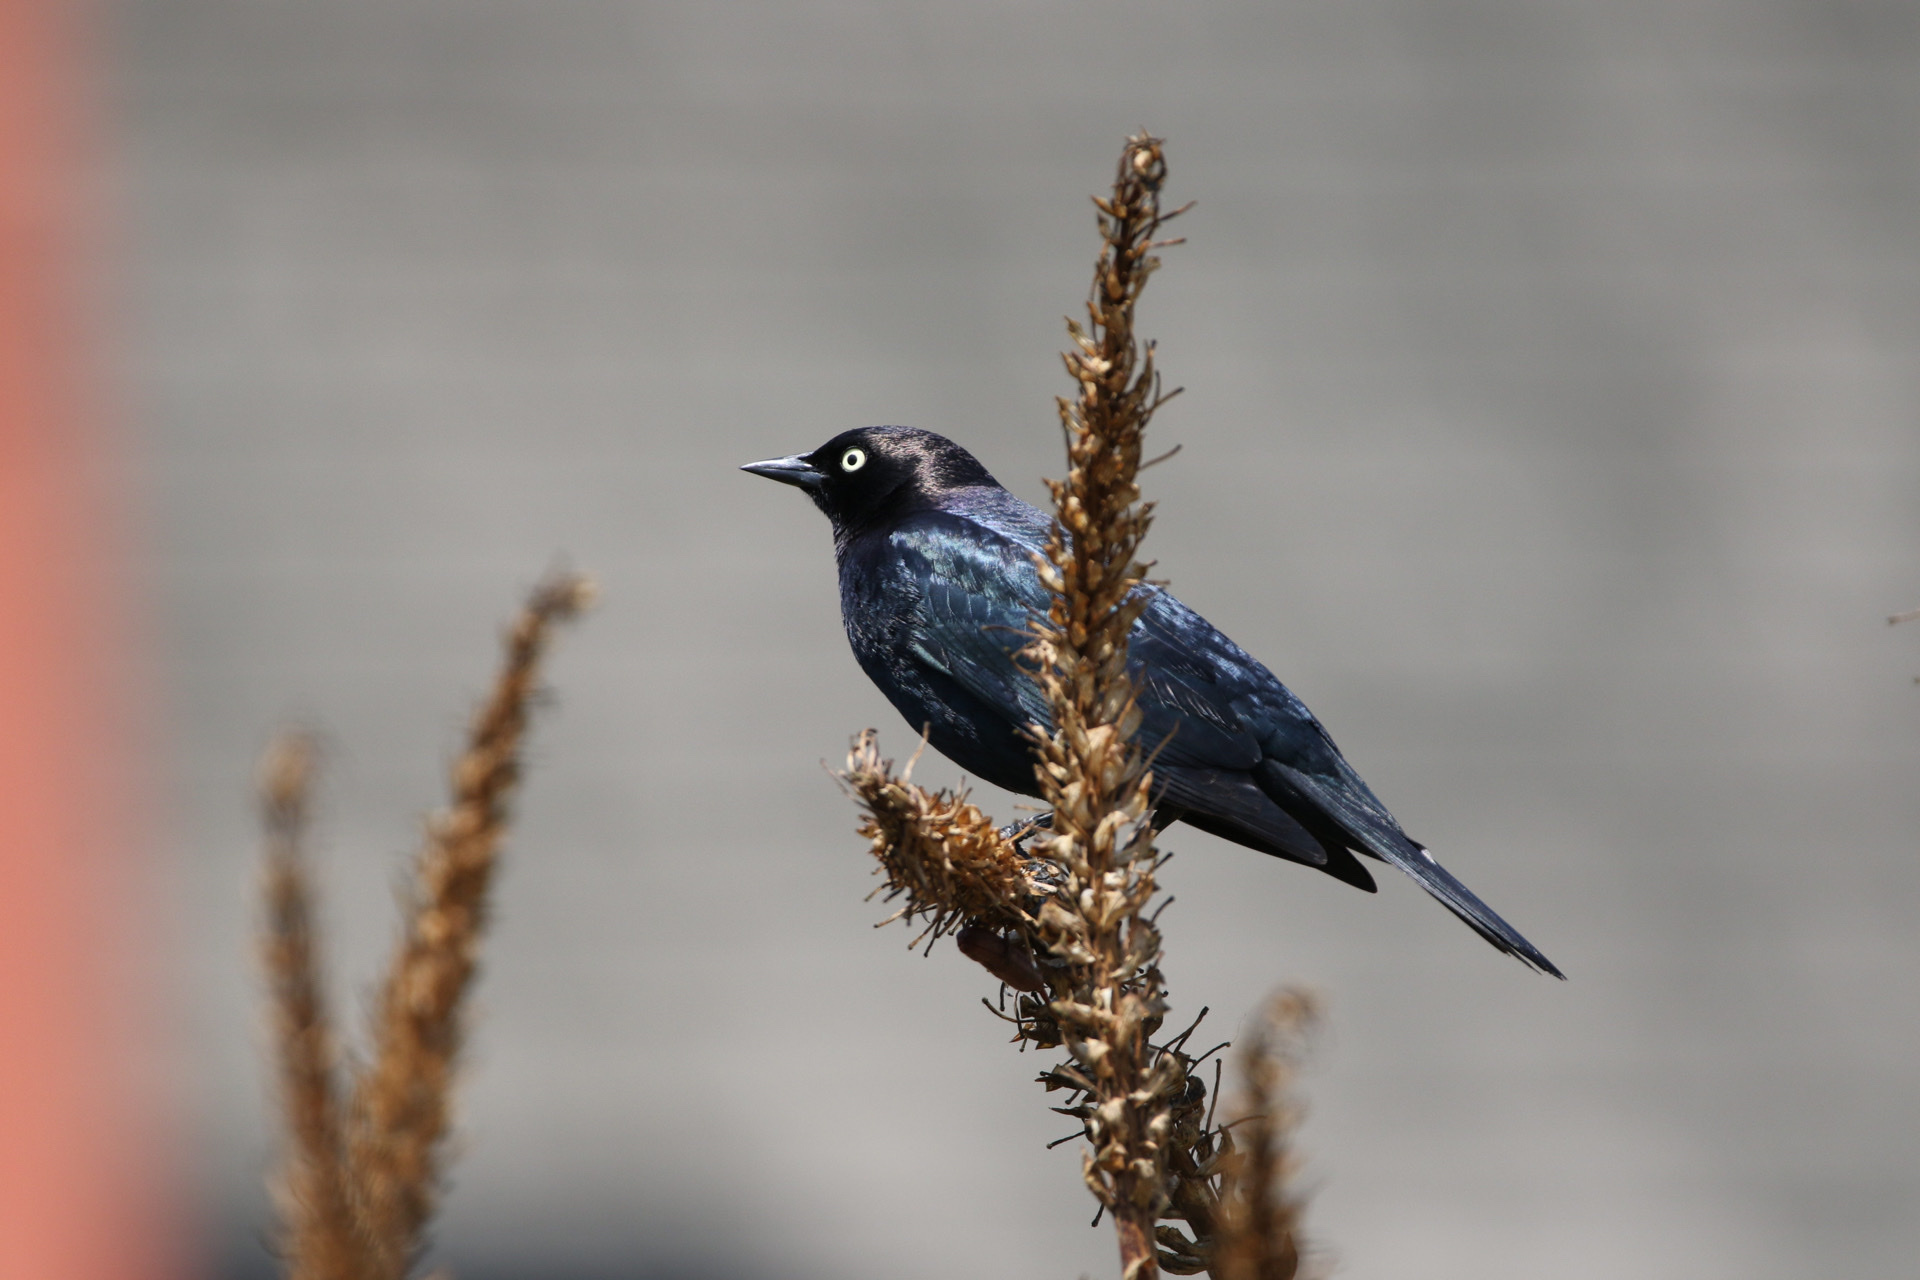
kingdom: Animalia
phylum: Chordata
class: Aves
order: Passeriformes
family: Icteridae
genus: Euphagus
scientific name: Euphagus cyanocephalus
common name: Brewer's blackbird
